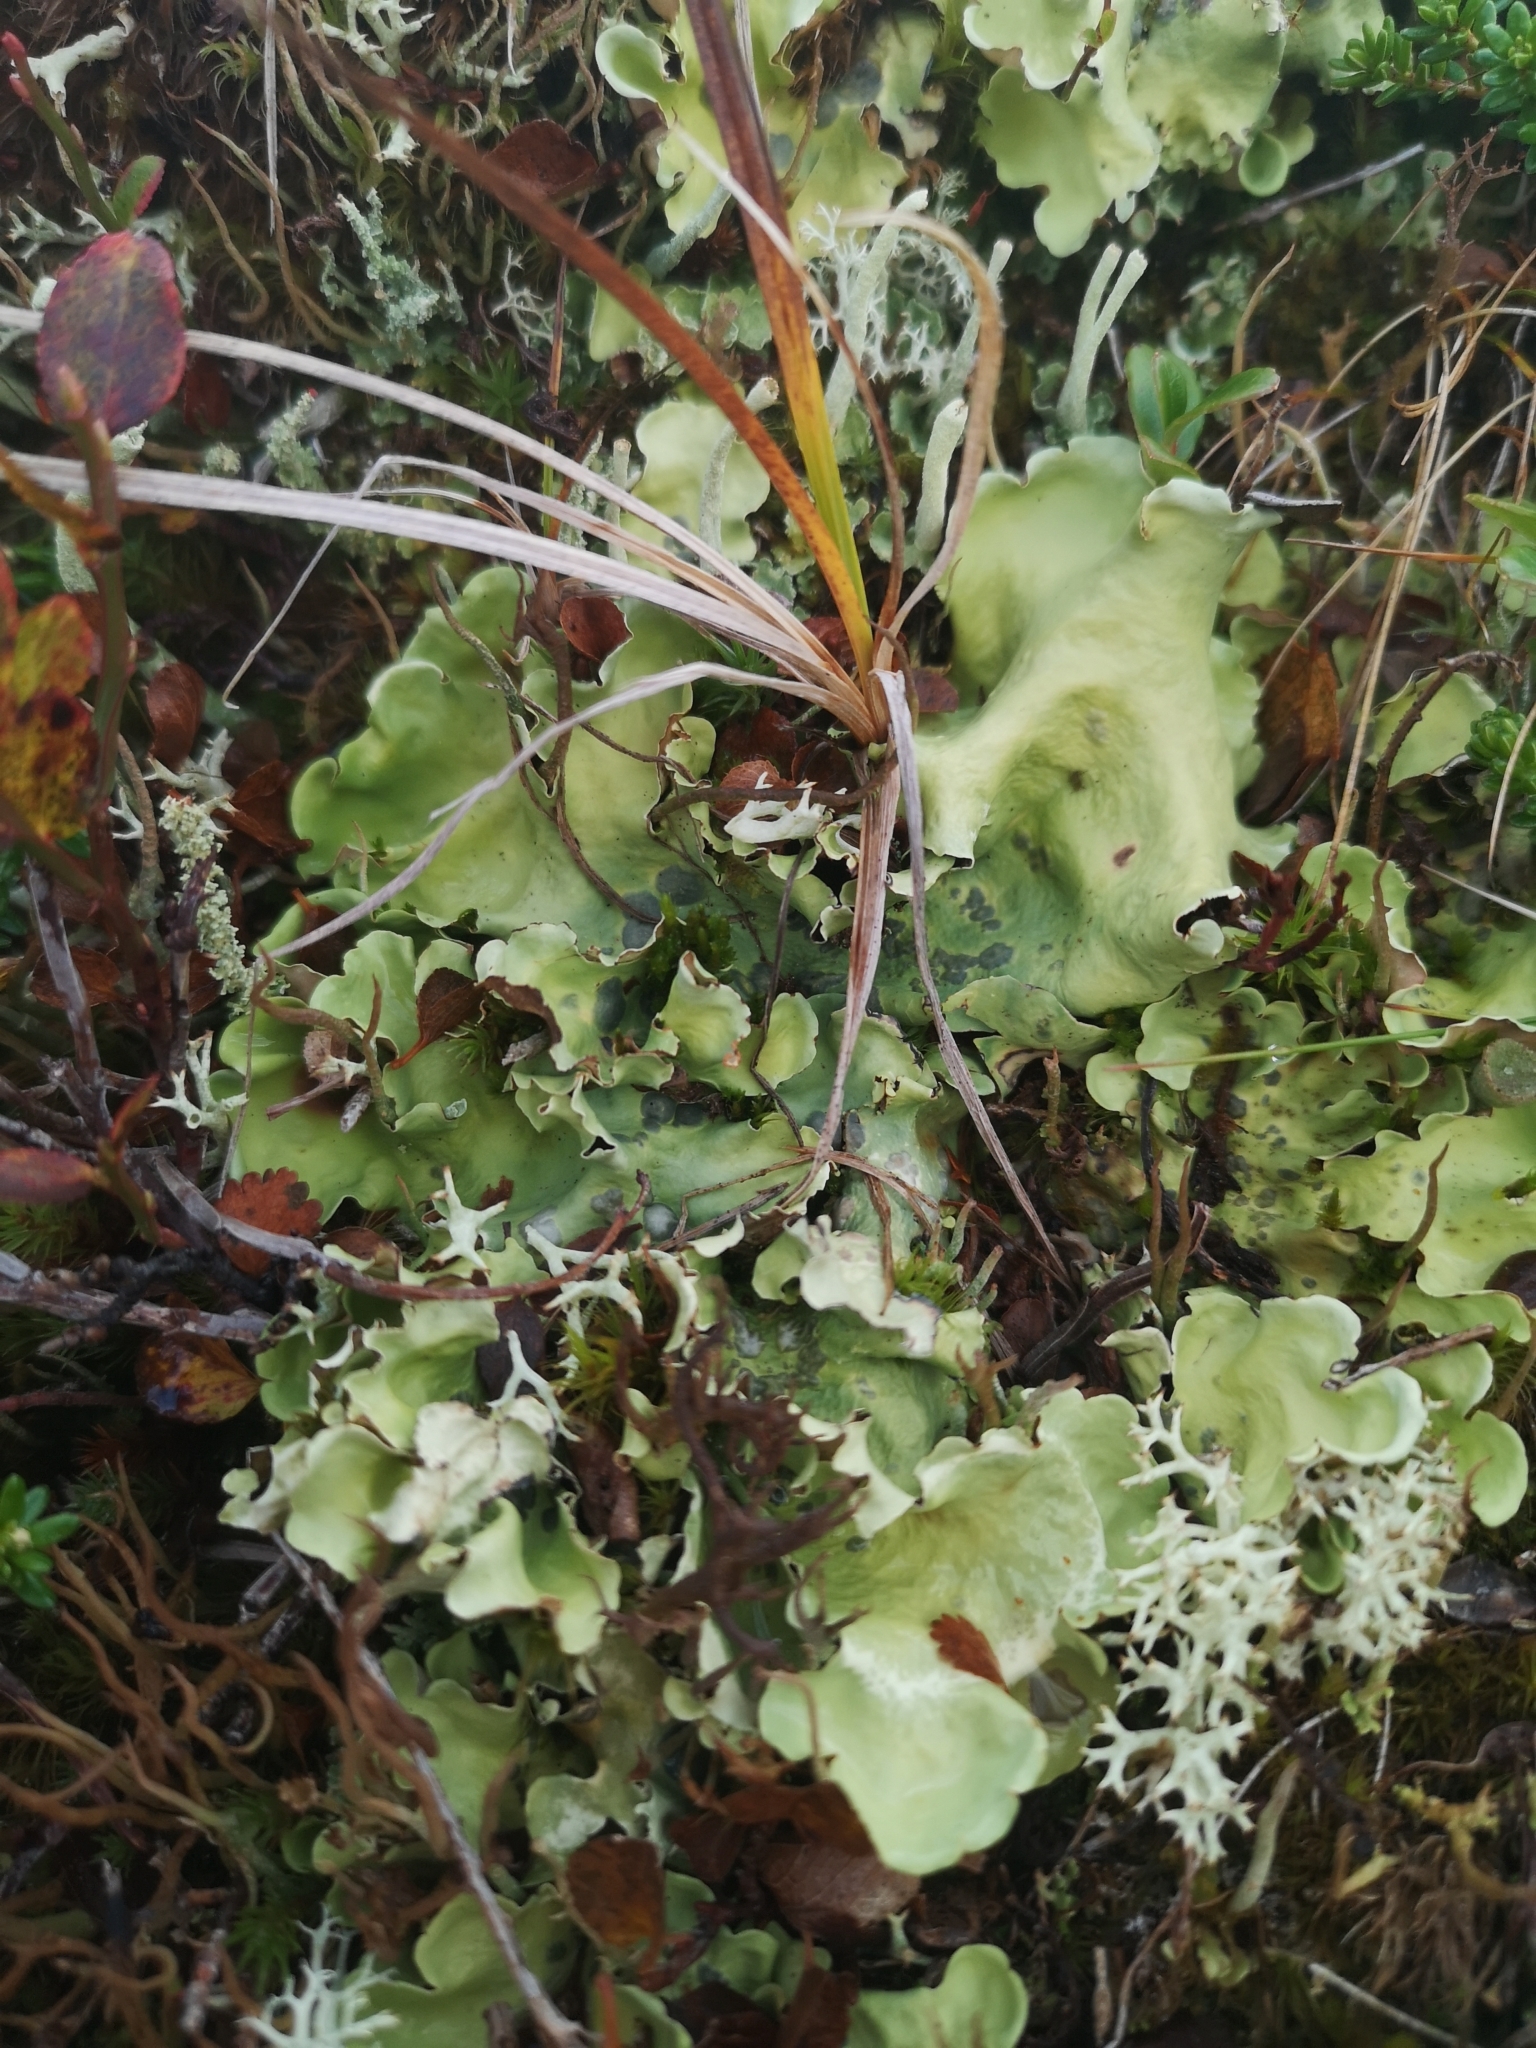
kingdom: Fungi
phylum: Ascomycota
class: Lecanoromycetes
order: Peltigerales
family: Nephromataceae
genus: Nephroma
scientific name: Nephroma arcticum
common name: Arctic kidney-lichen
